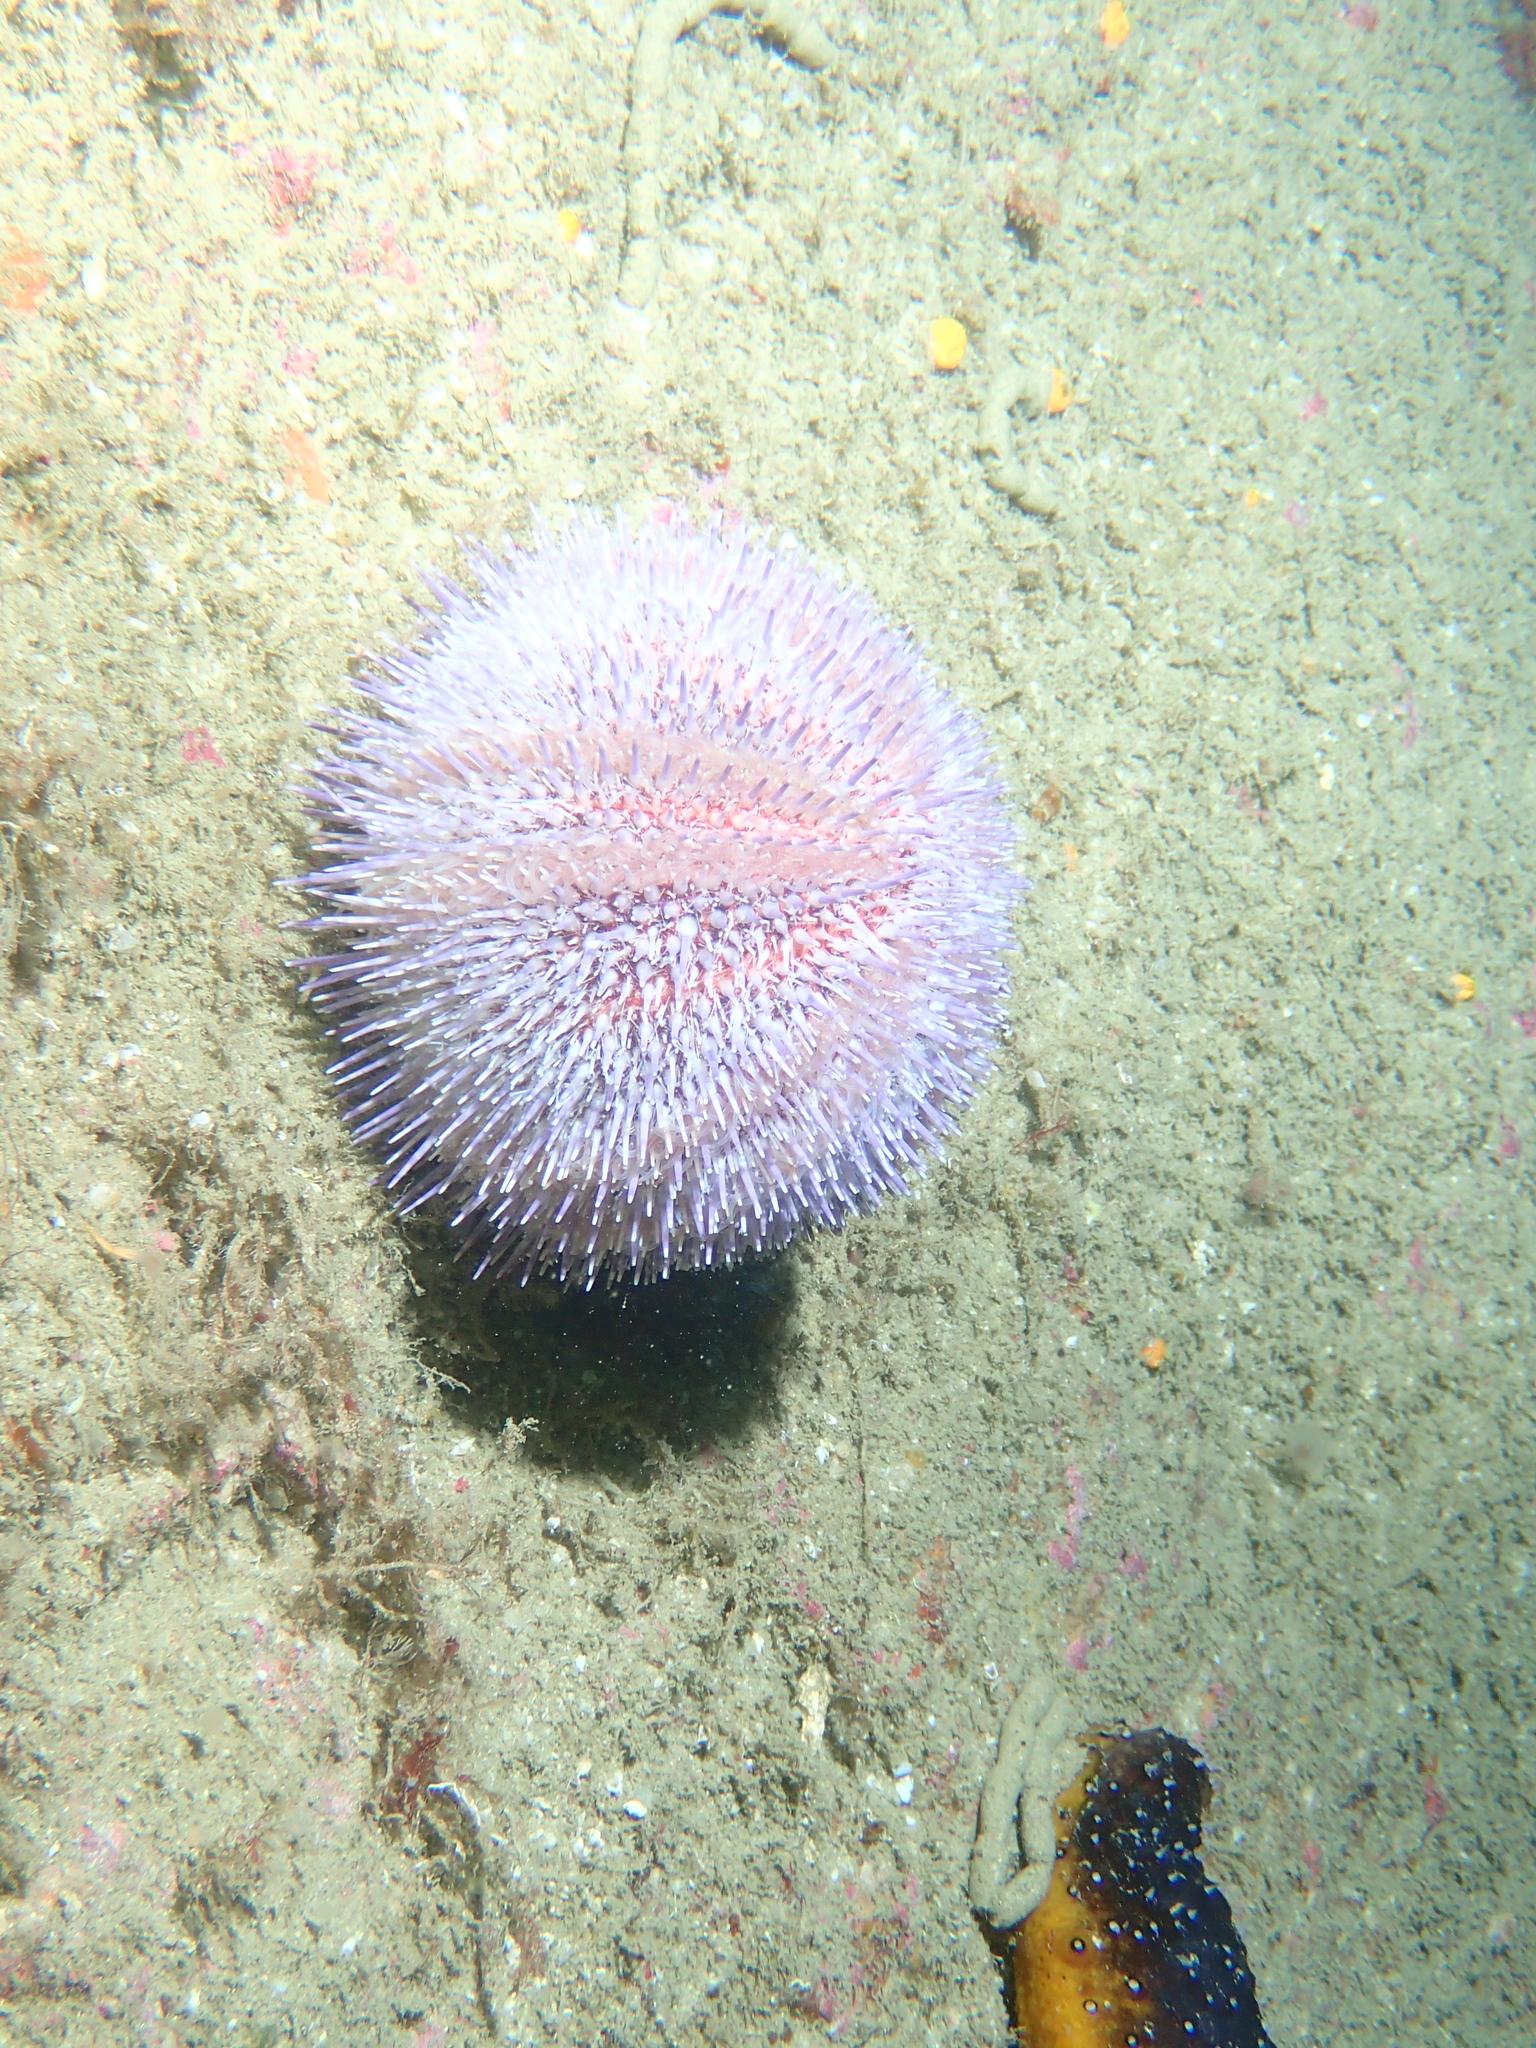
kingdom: Animalia
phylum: Echinodermata
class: Echinoidea
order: Camarodonta
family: Echinidae
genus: Echinus
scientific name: Echinus esculentus
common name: Edible sea urchin
